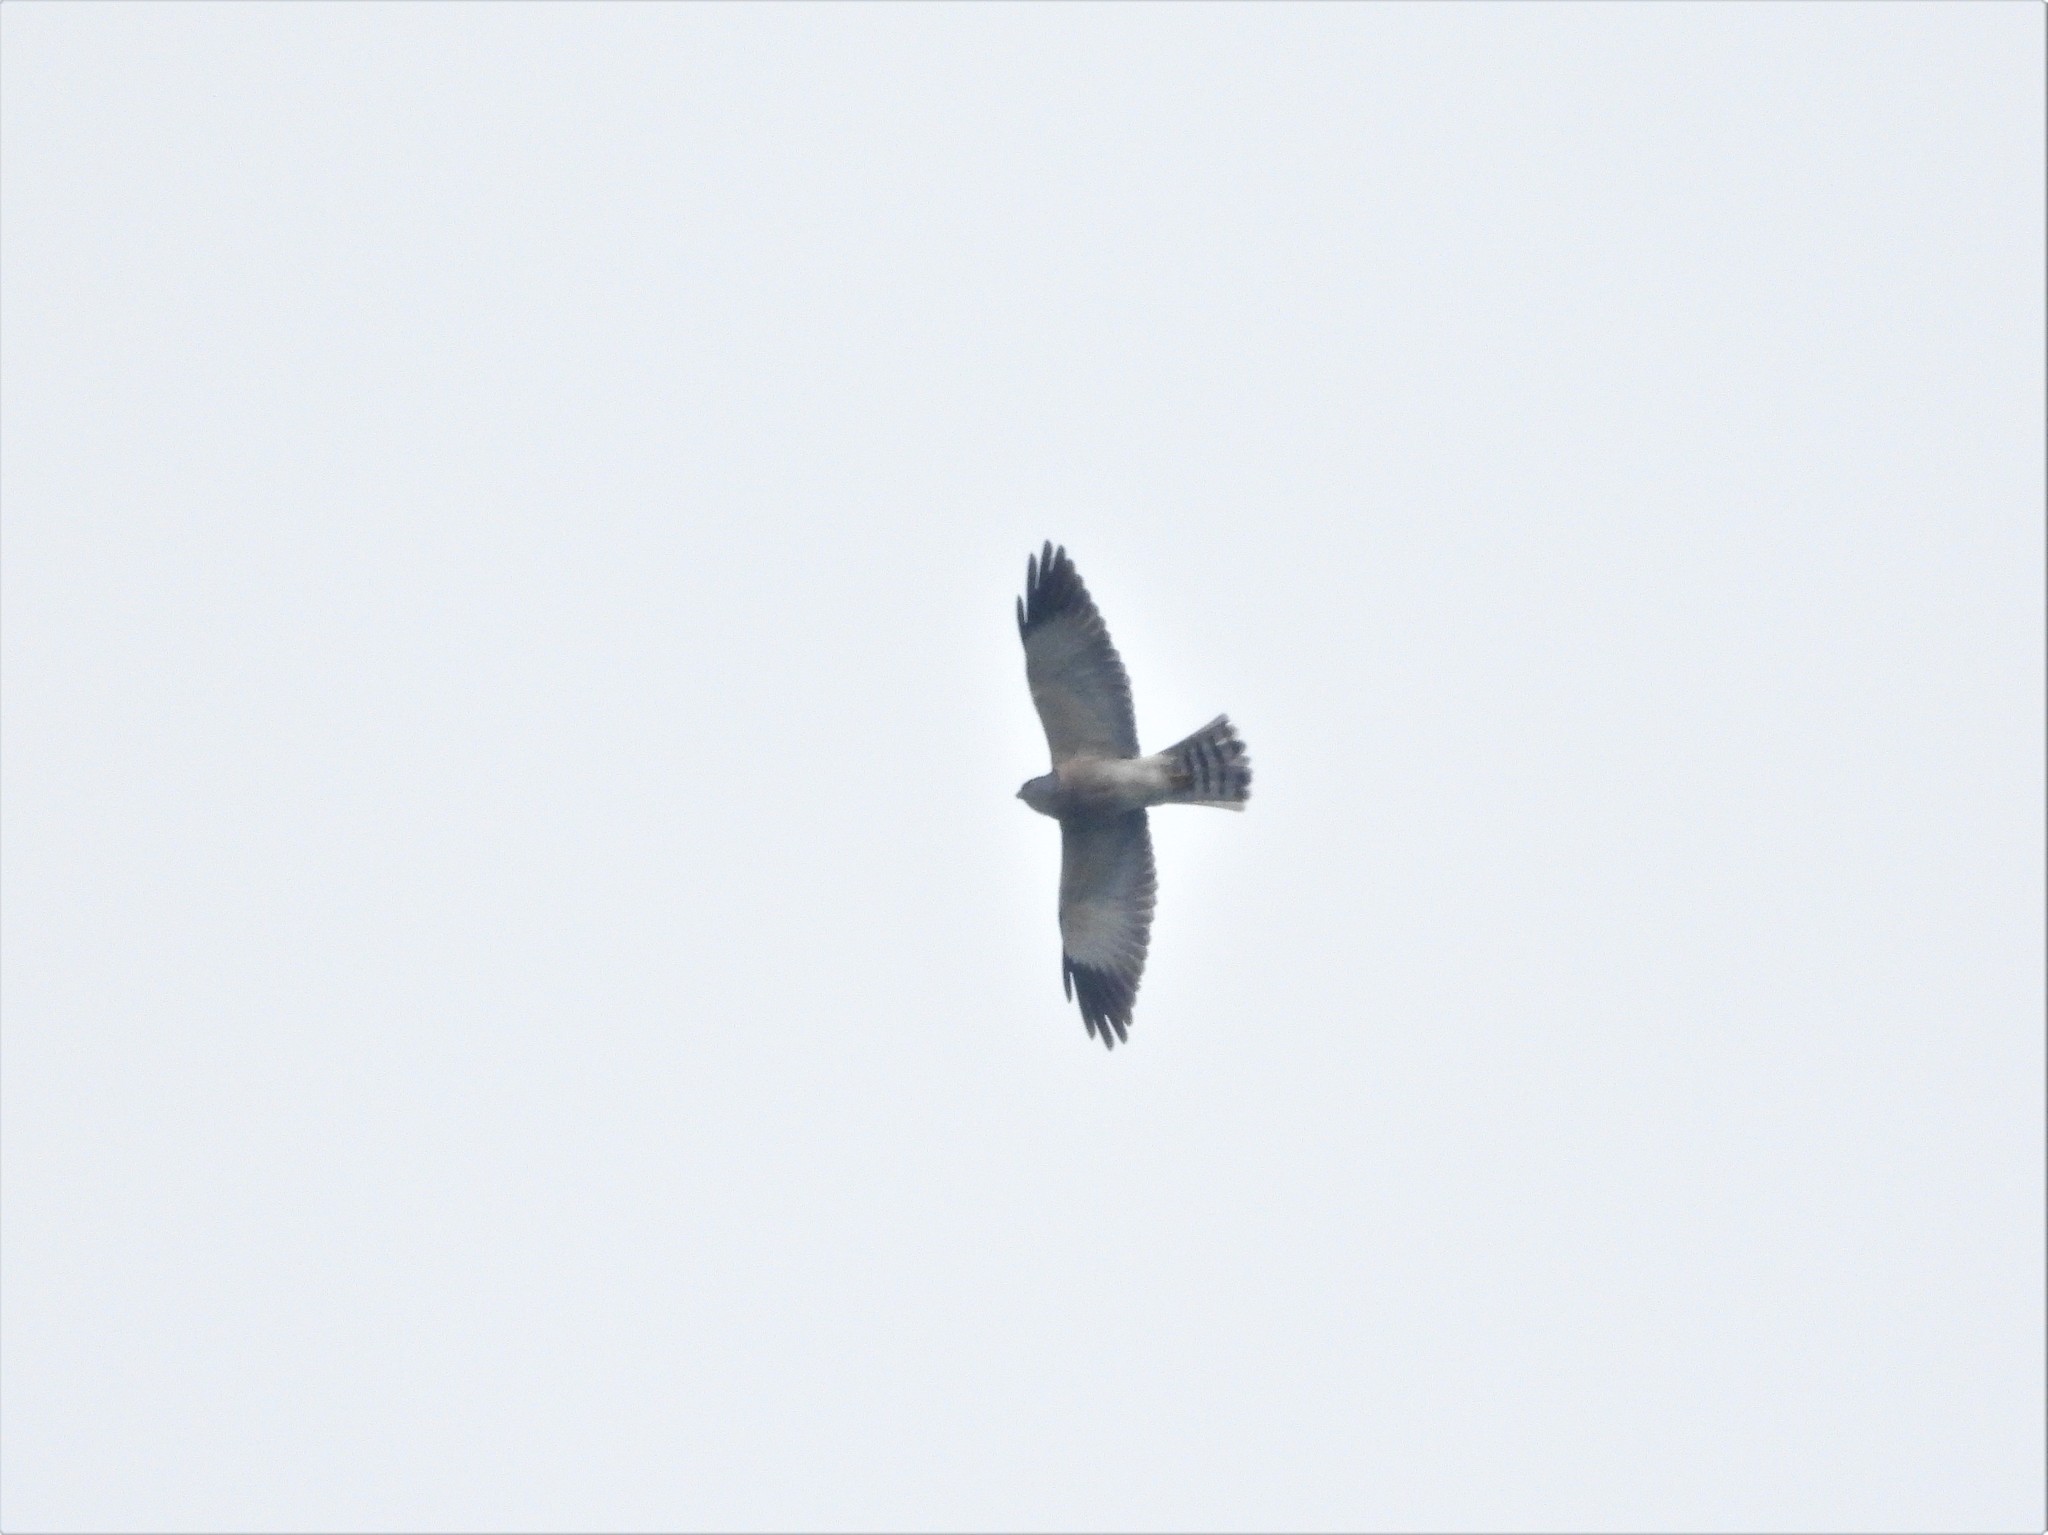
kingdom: Animalia
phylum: Chordata
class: Aves
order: Accipitriformes
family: Accipitridae
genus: Accipiter
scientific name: Accipiter soloensis
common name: Chinese sparrowhawk
